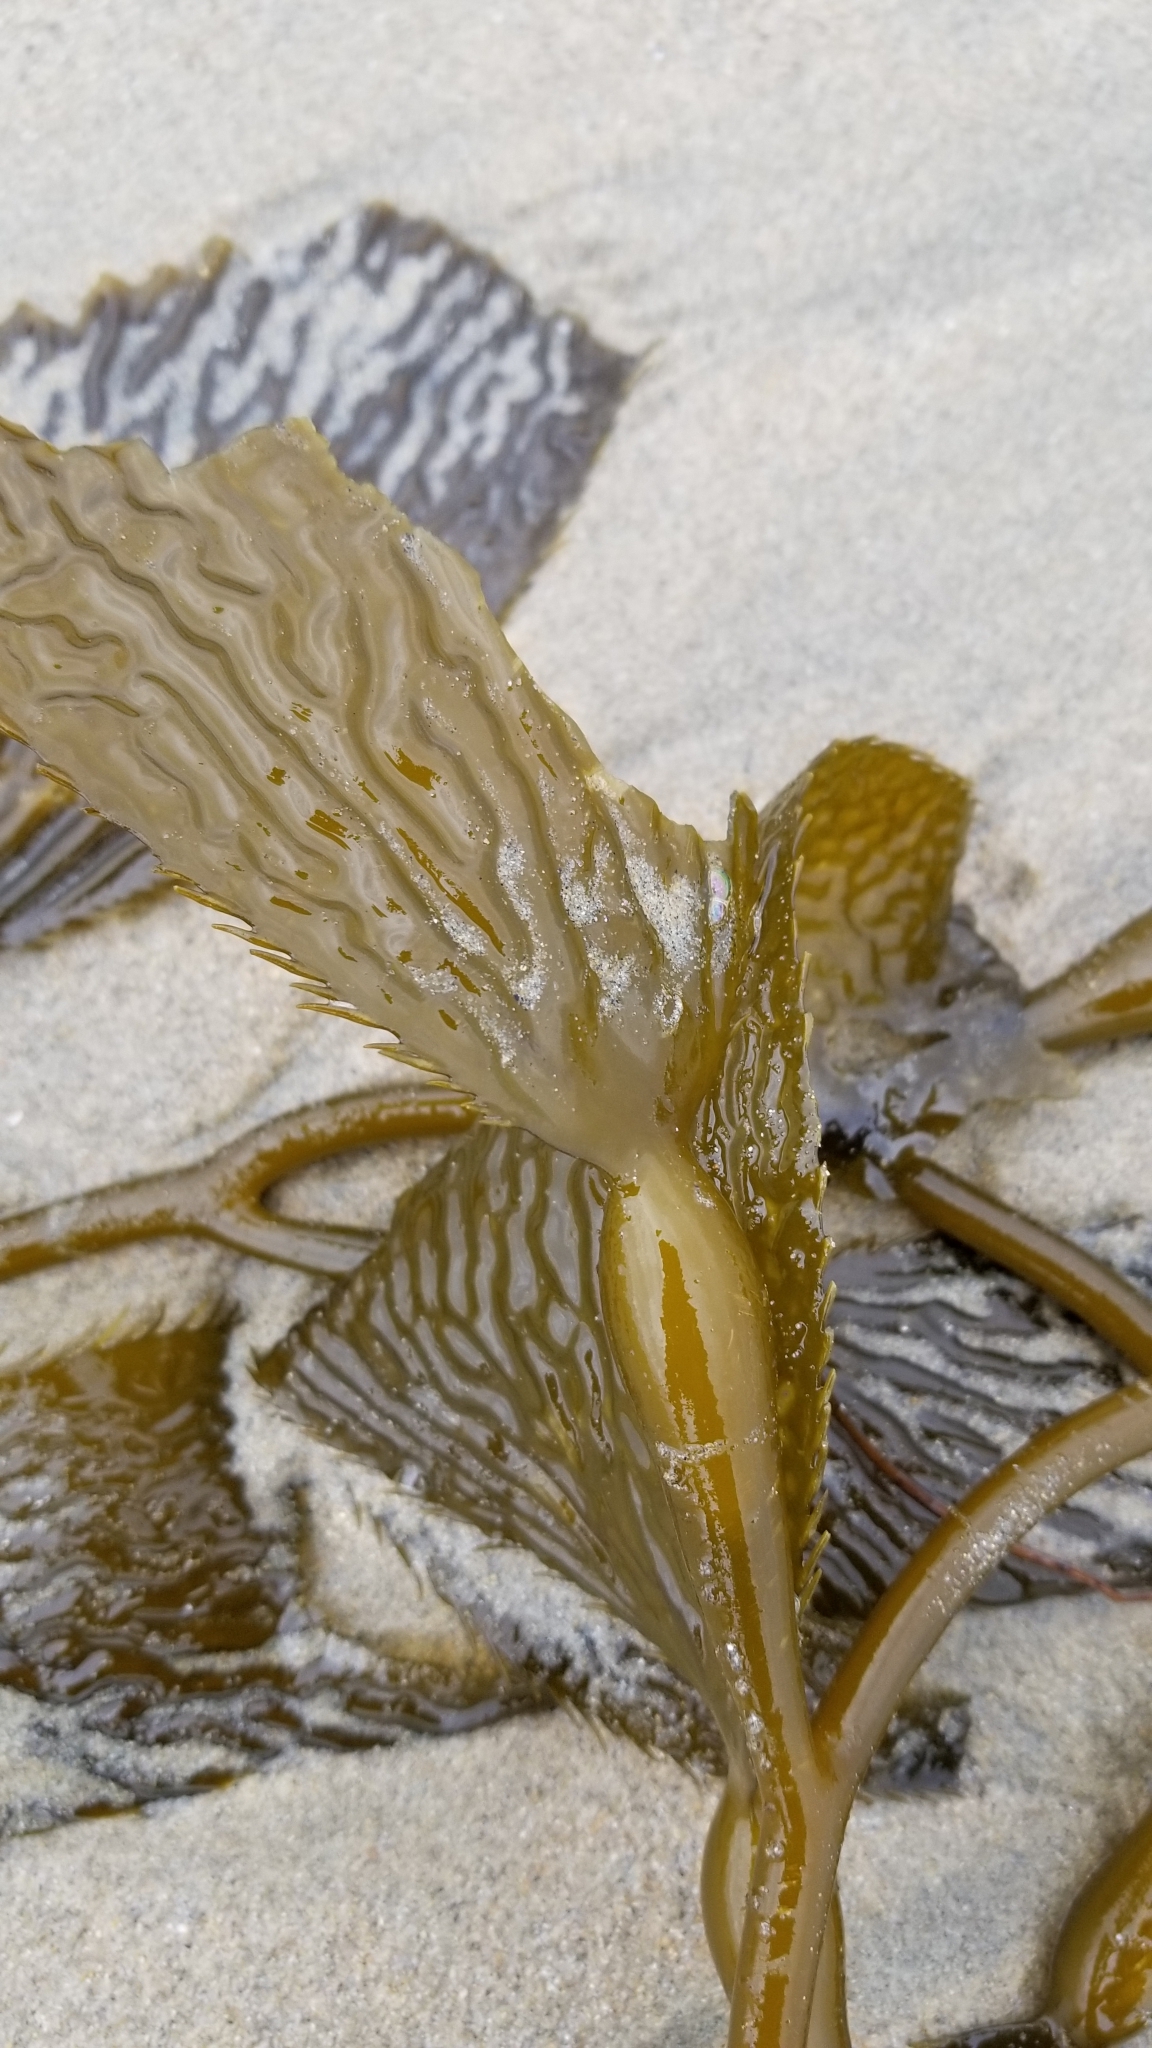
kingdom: Chromista
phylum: Ochrophyta
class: Phaeophyceae
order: Laminariales
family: Laminariaceae
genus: Macrocystis
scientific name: Macrocystis pyrifera
